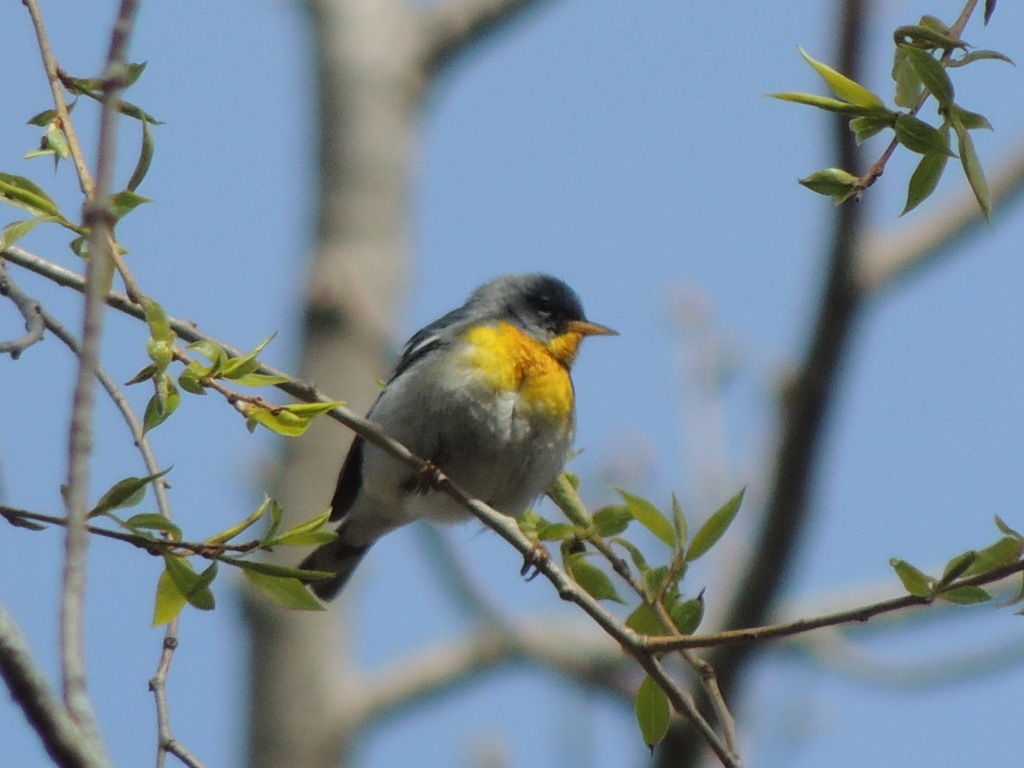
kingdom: Animalia
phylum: Chordata
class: Aves
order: Passeriformes
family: Parulidae
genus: Setophaga
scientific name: Setophaga americana
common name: Northern parula
